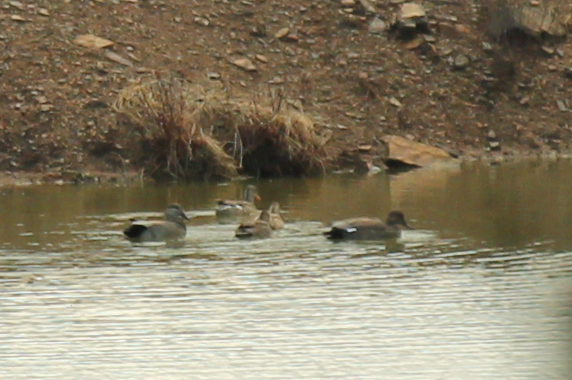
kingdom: Animalia
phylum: Chordata
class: Aves
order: Anseriformes
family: Anatidae
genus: Mareca
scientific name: Mareca strepera
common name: Gadwall
